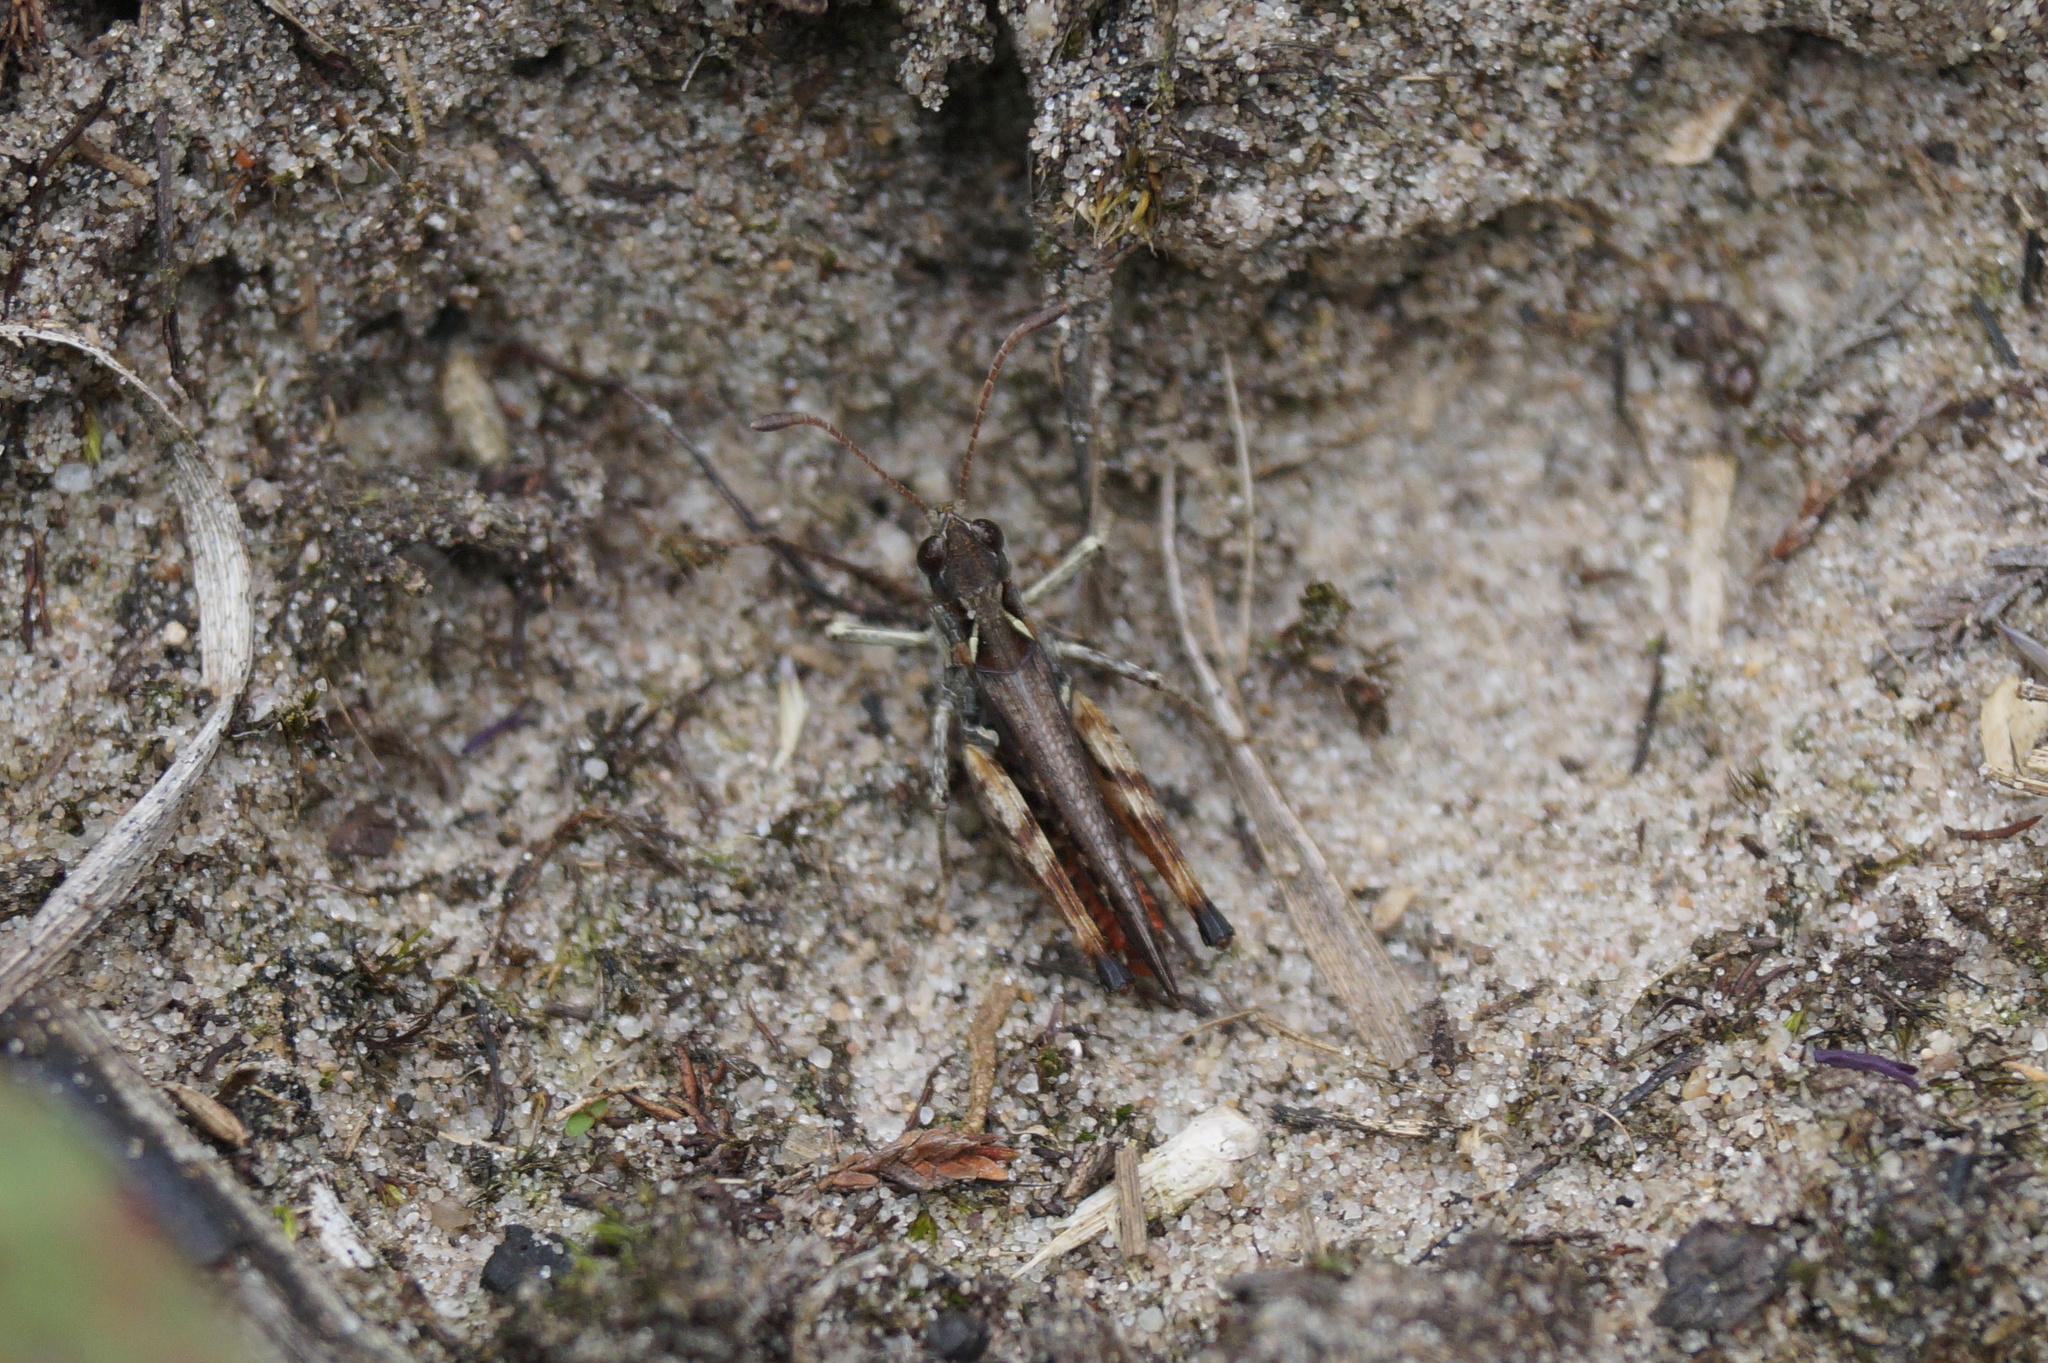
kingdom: Animalia
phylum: Arthropoda
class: Insecta
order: Orthoptera
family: Acrididae
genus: Myrmeleotettix
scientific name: Myrmeleotettix maculatus
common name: Mottled grasshopper
